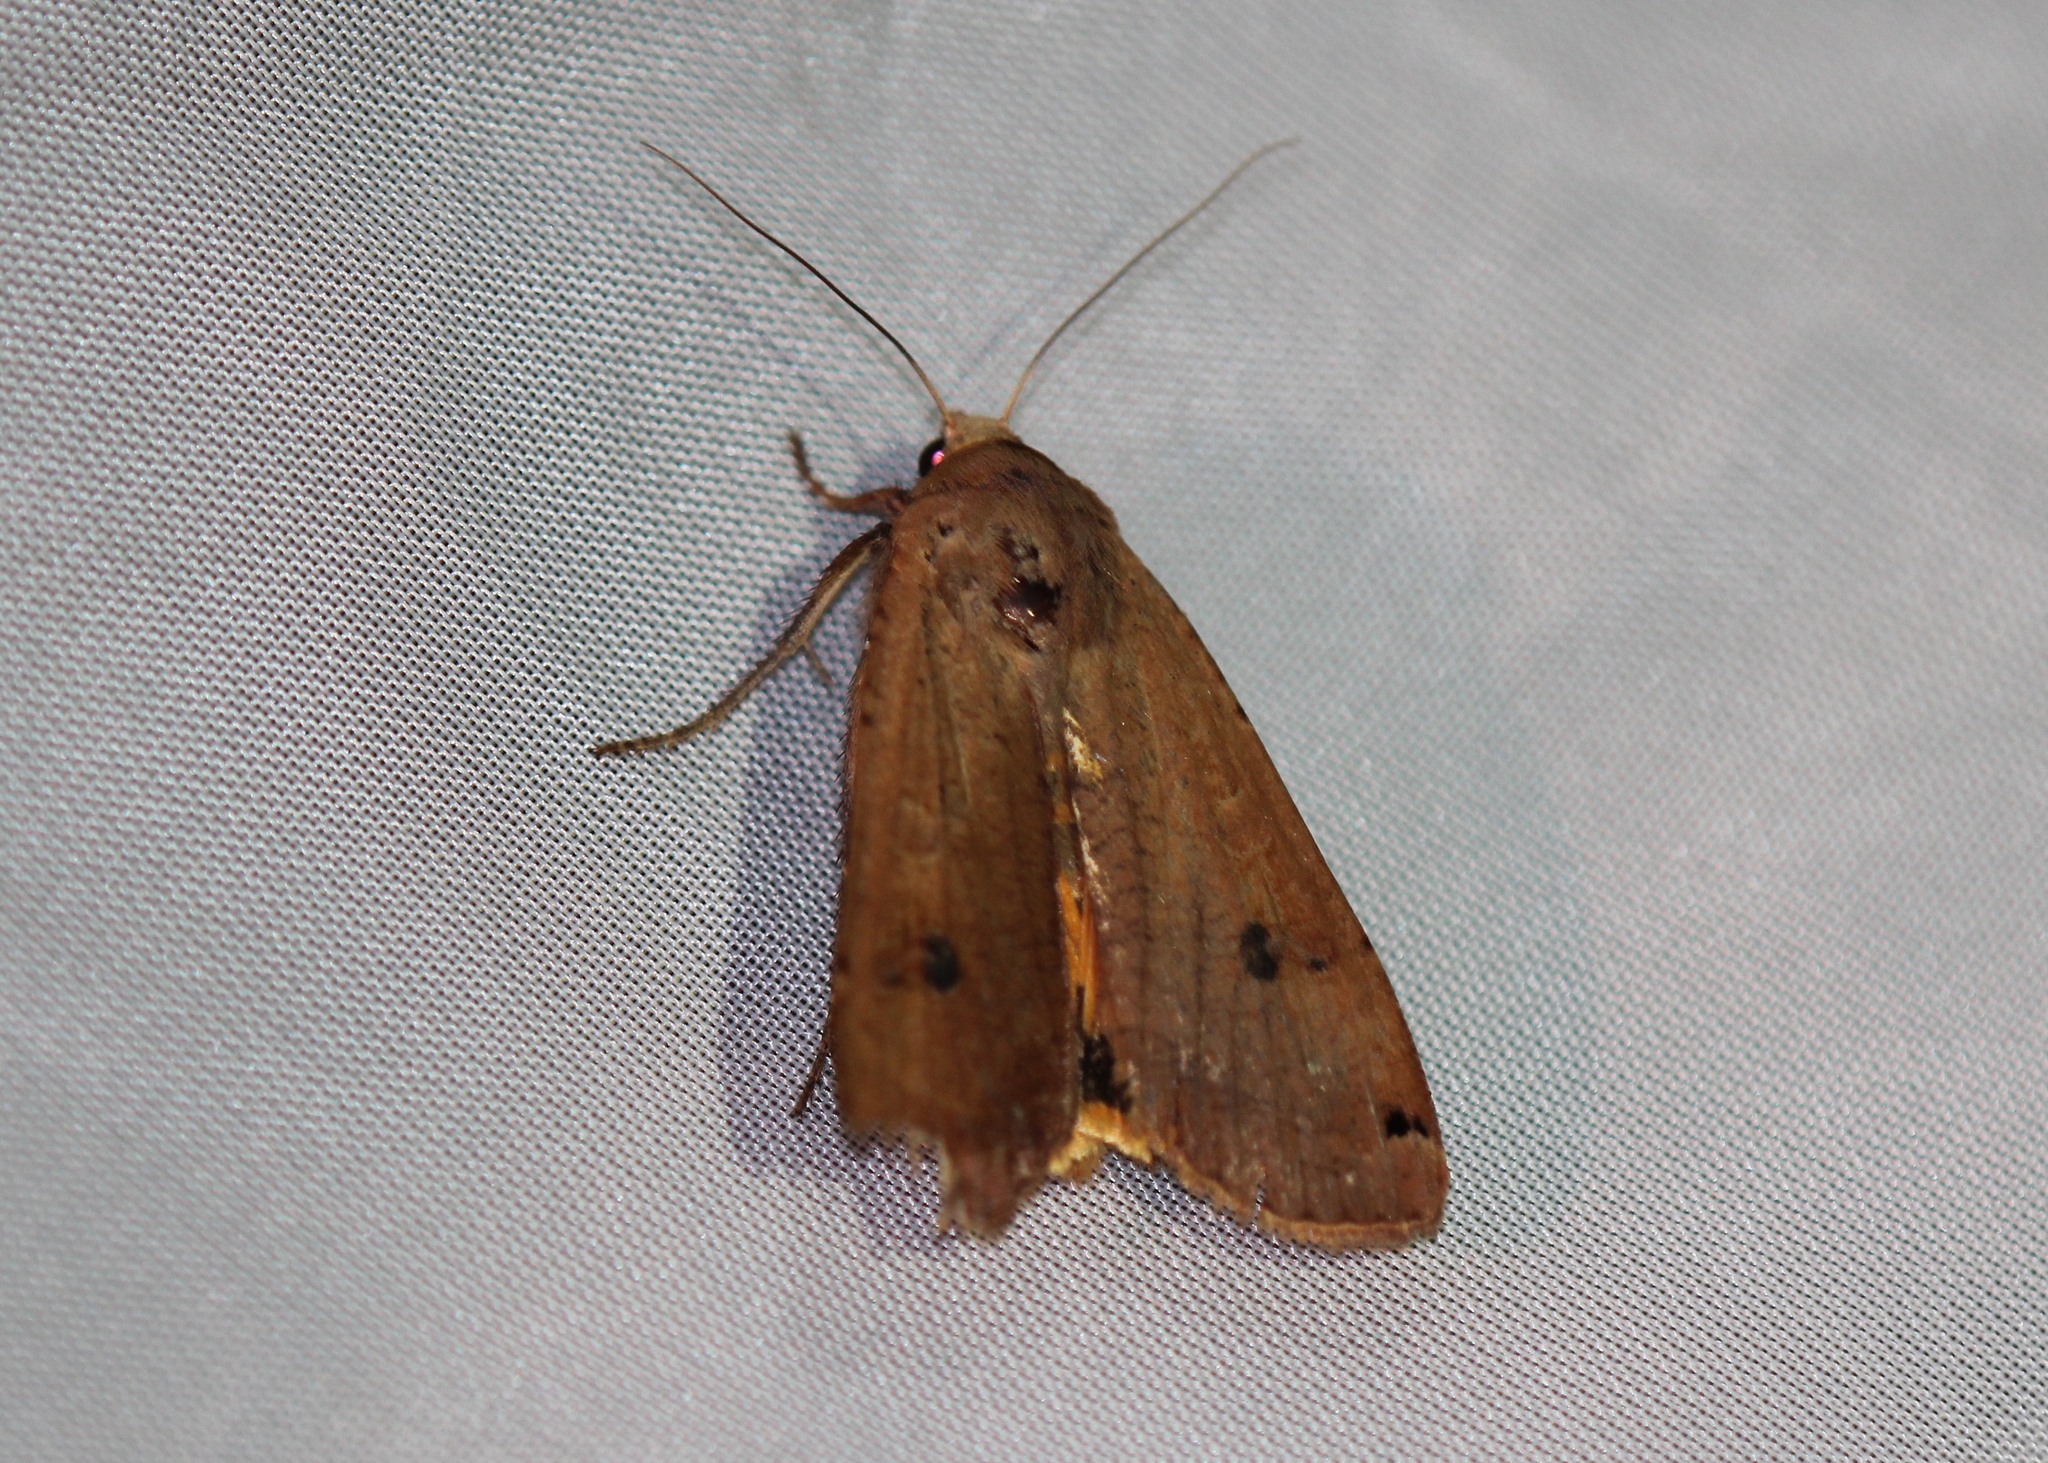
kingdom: Animalia
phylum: Arthropoda
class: Insecta
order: Lepidoptera
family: Noctuidae
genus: Noctua
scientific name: Noctua pronuba
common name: Large yellow underwing
